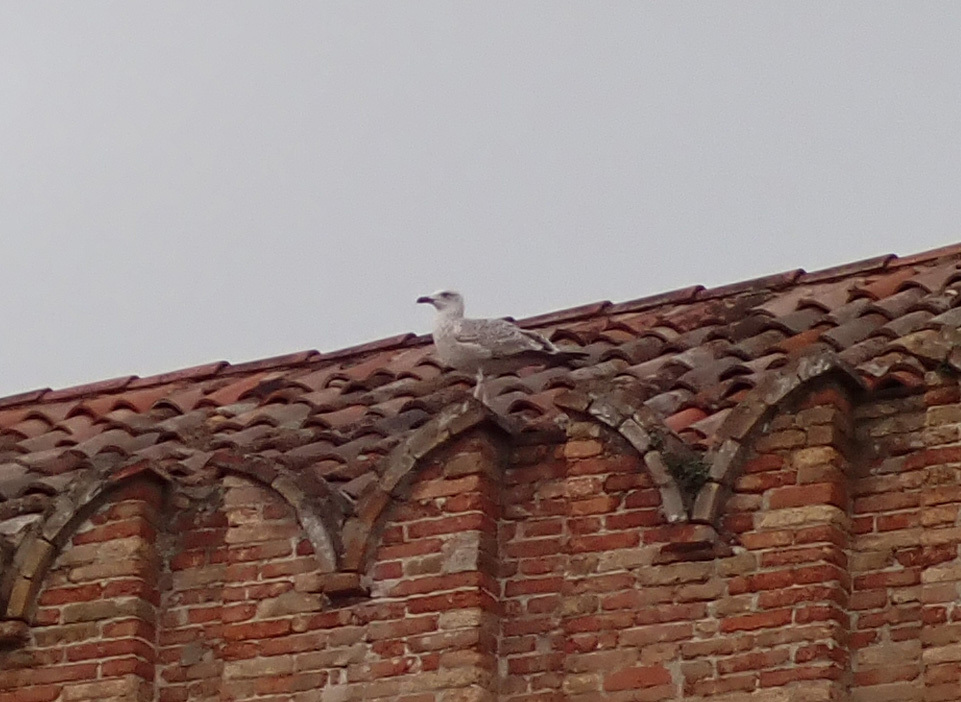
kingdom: Animalia
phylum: Chordata
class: Aves
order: Charadriiformes
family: Laridae
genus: Larus
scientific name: Larus michahellis
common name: Yellow-legged gull
